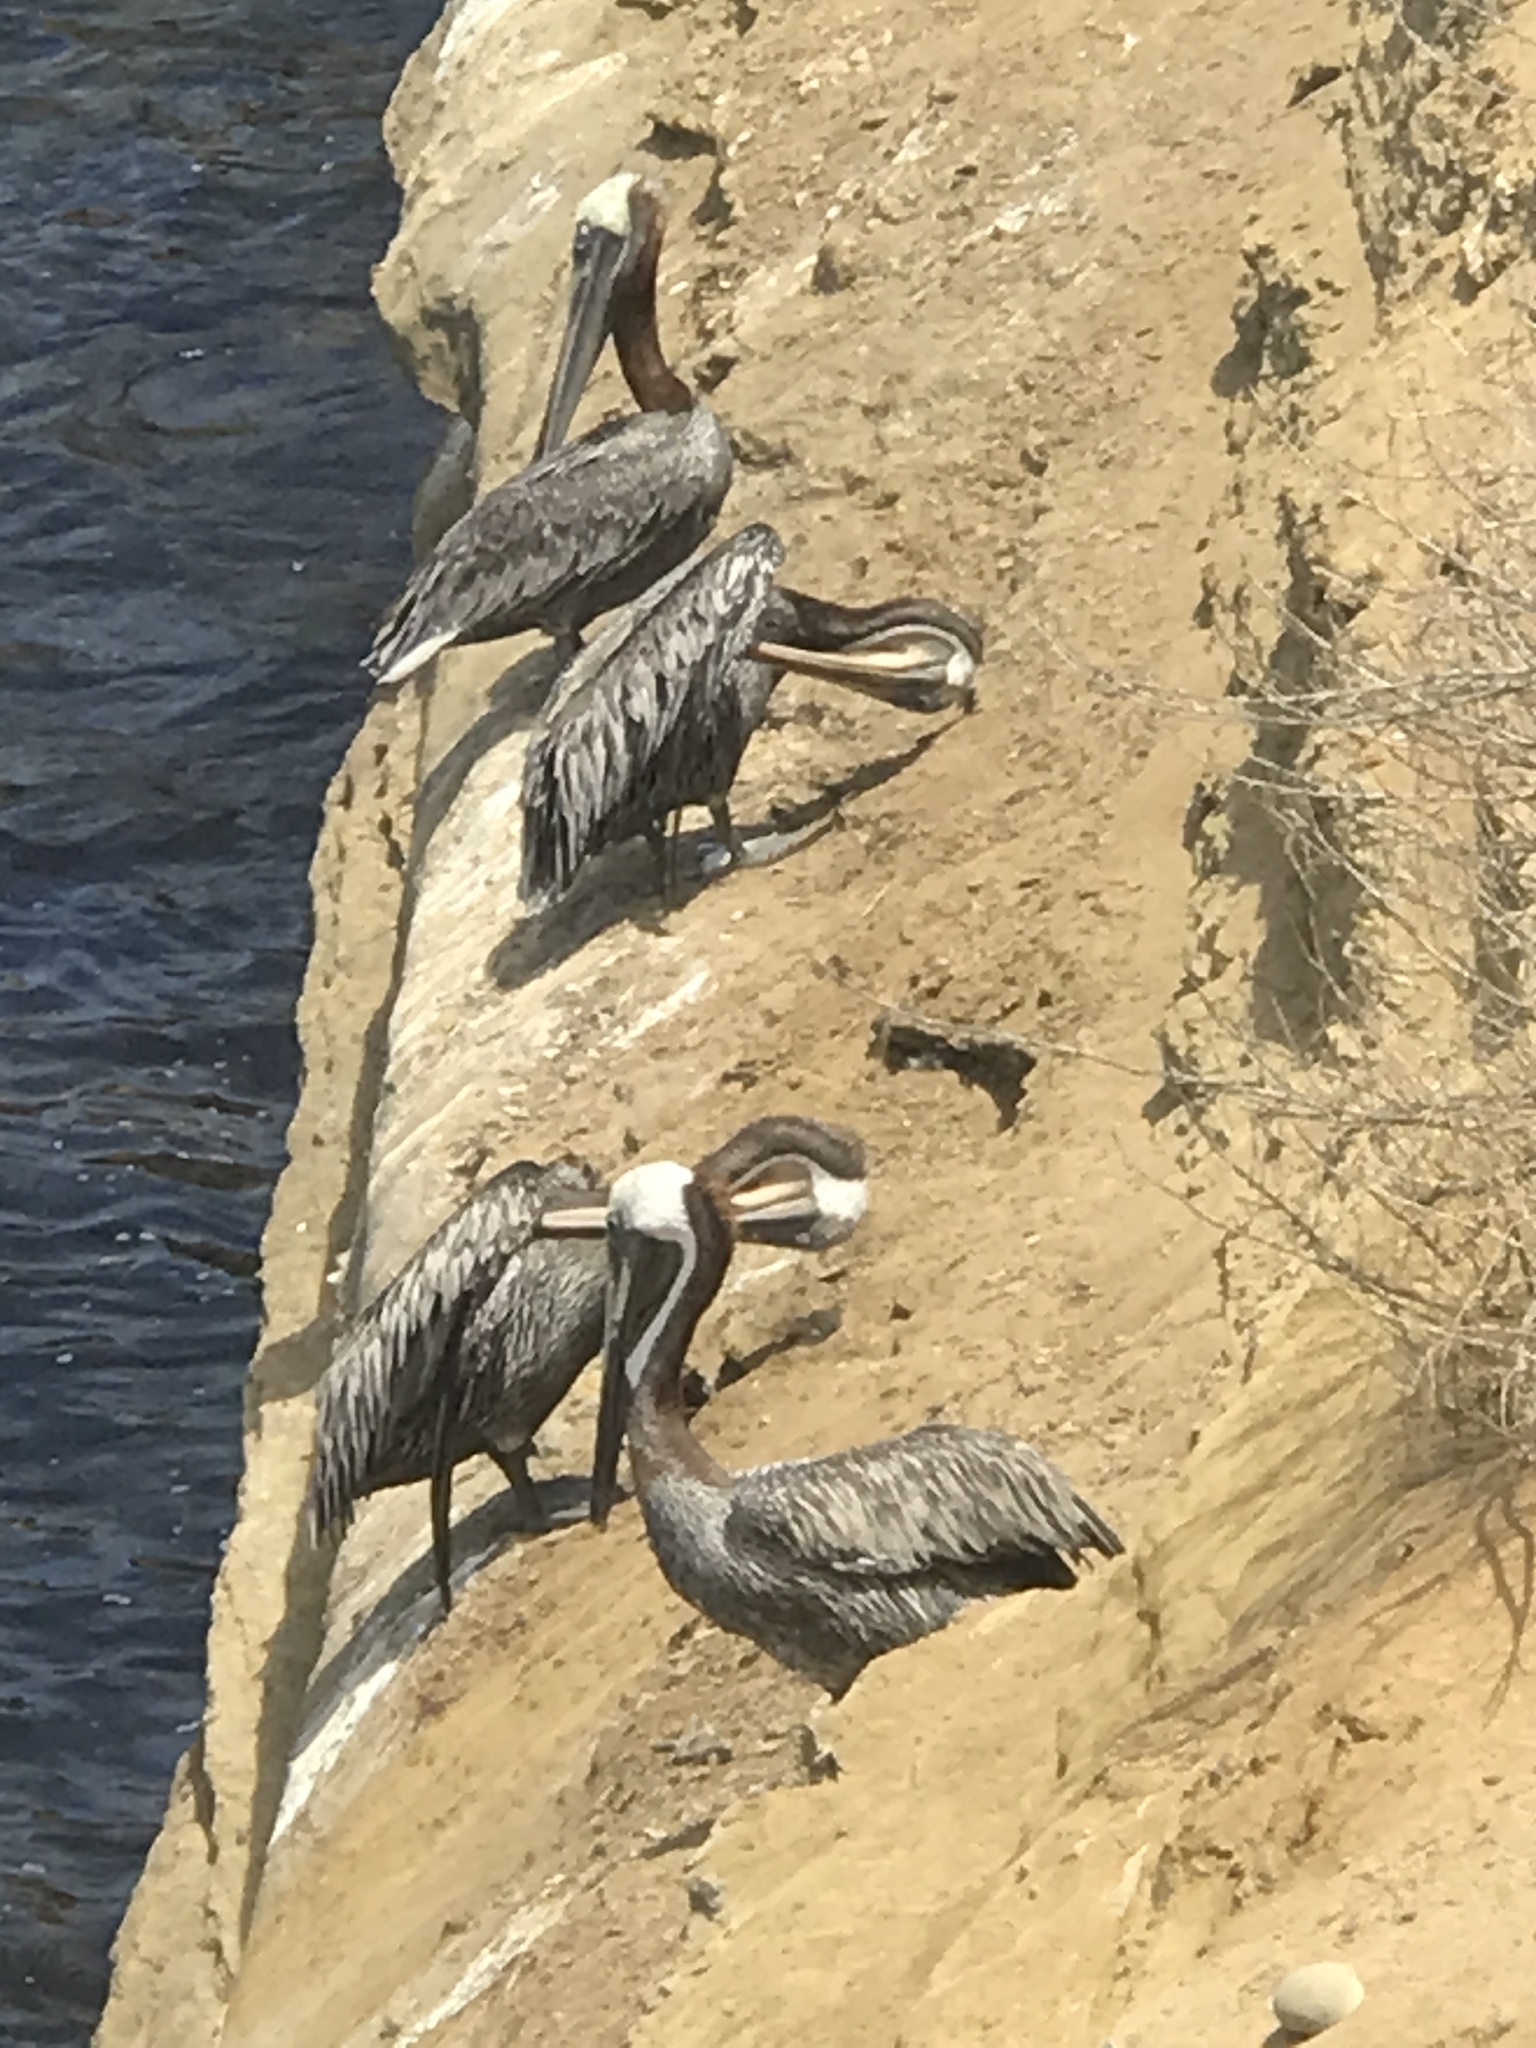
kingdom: Animalia
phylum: Chordata
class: Aves
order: Pelecaniformes
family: Pelecanidae
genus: Pelecanus
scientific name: Pelecanus occidentalis
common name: Brown pelican
